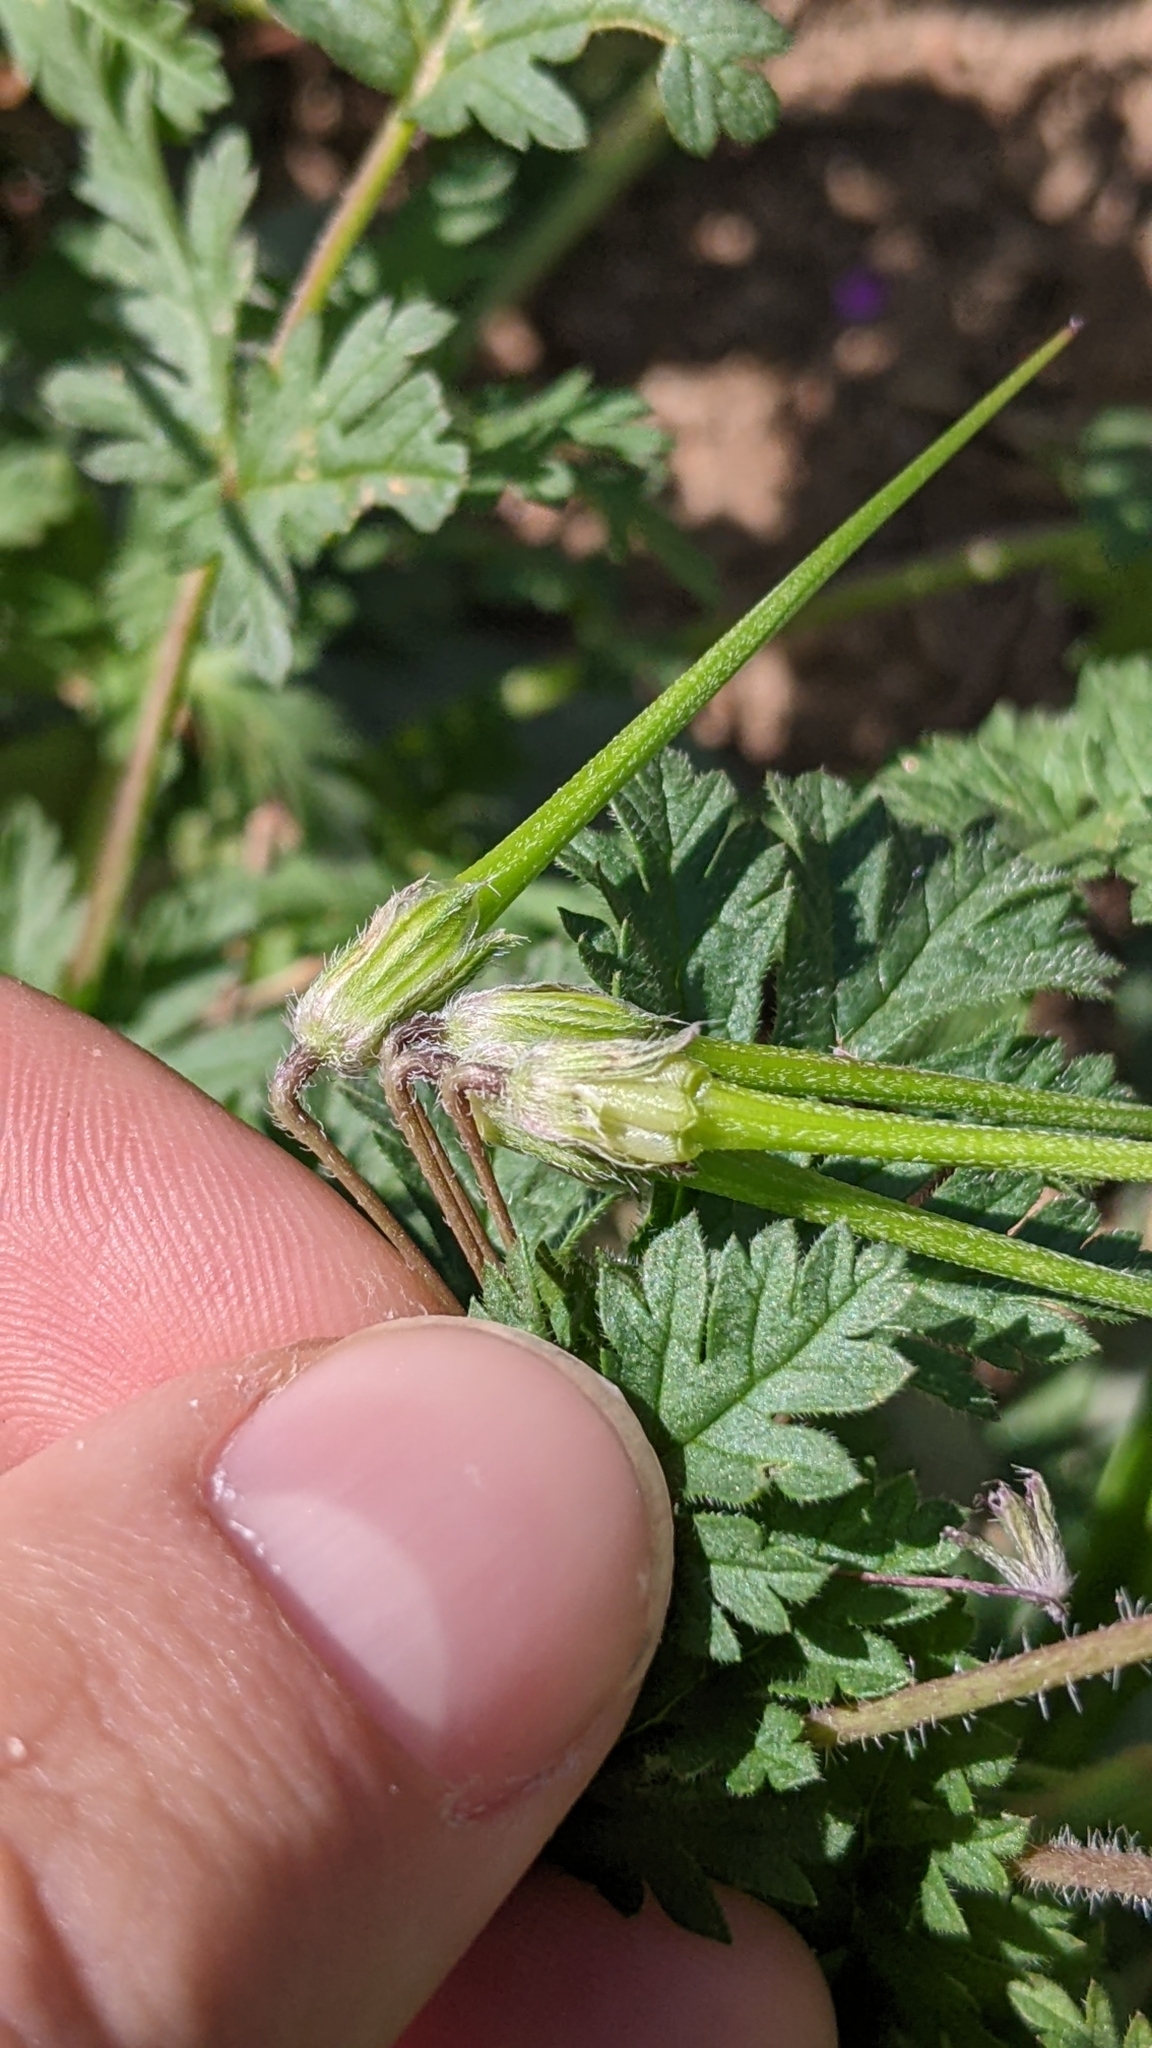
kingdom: Plantae
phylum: Tracheophyta
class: Magnoliopsida
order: Geraniales
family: Geraniaceae
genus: Erodium
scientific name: Erodium cicutarium
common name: Common stork's-bill
